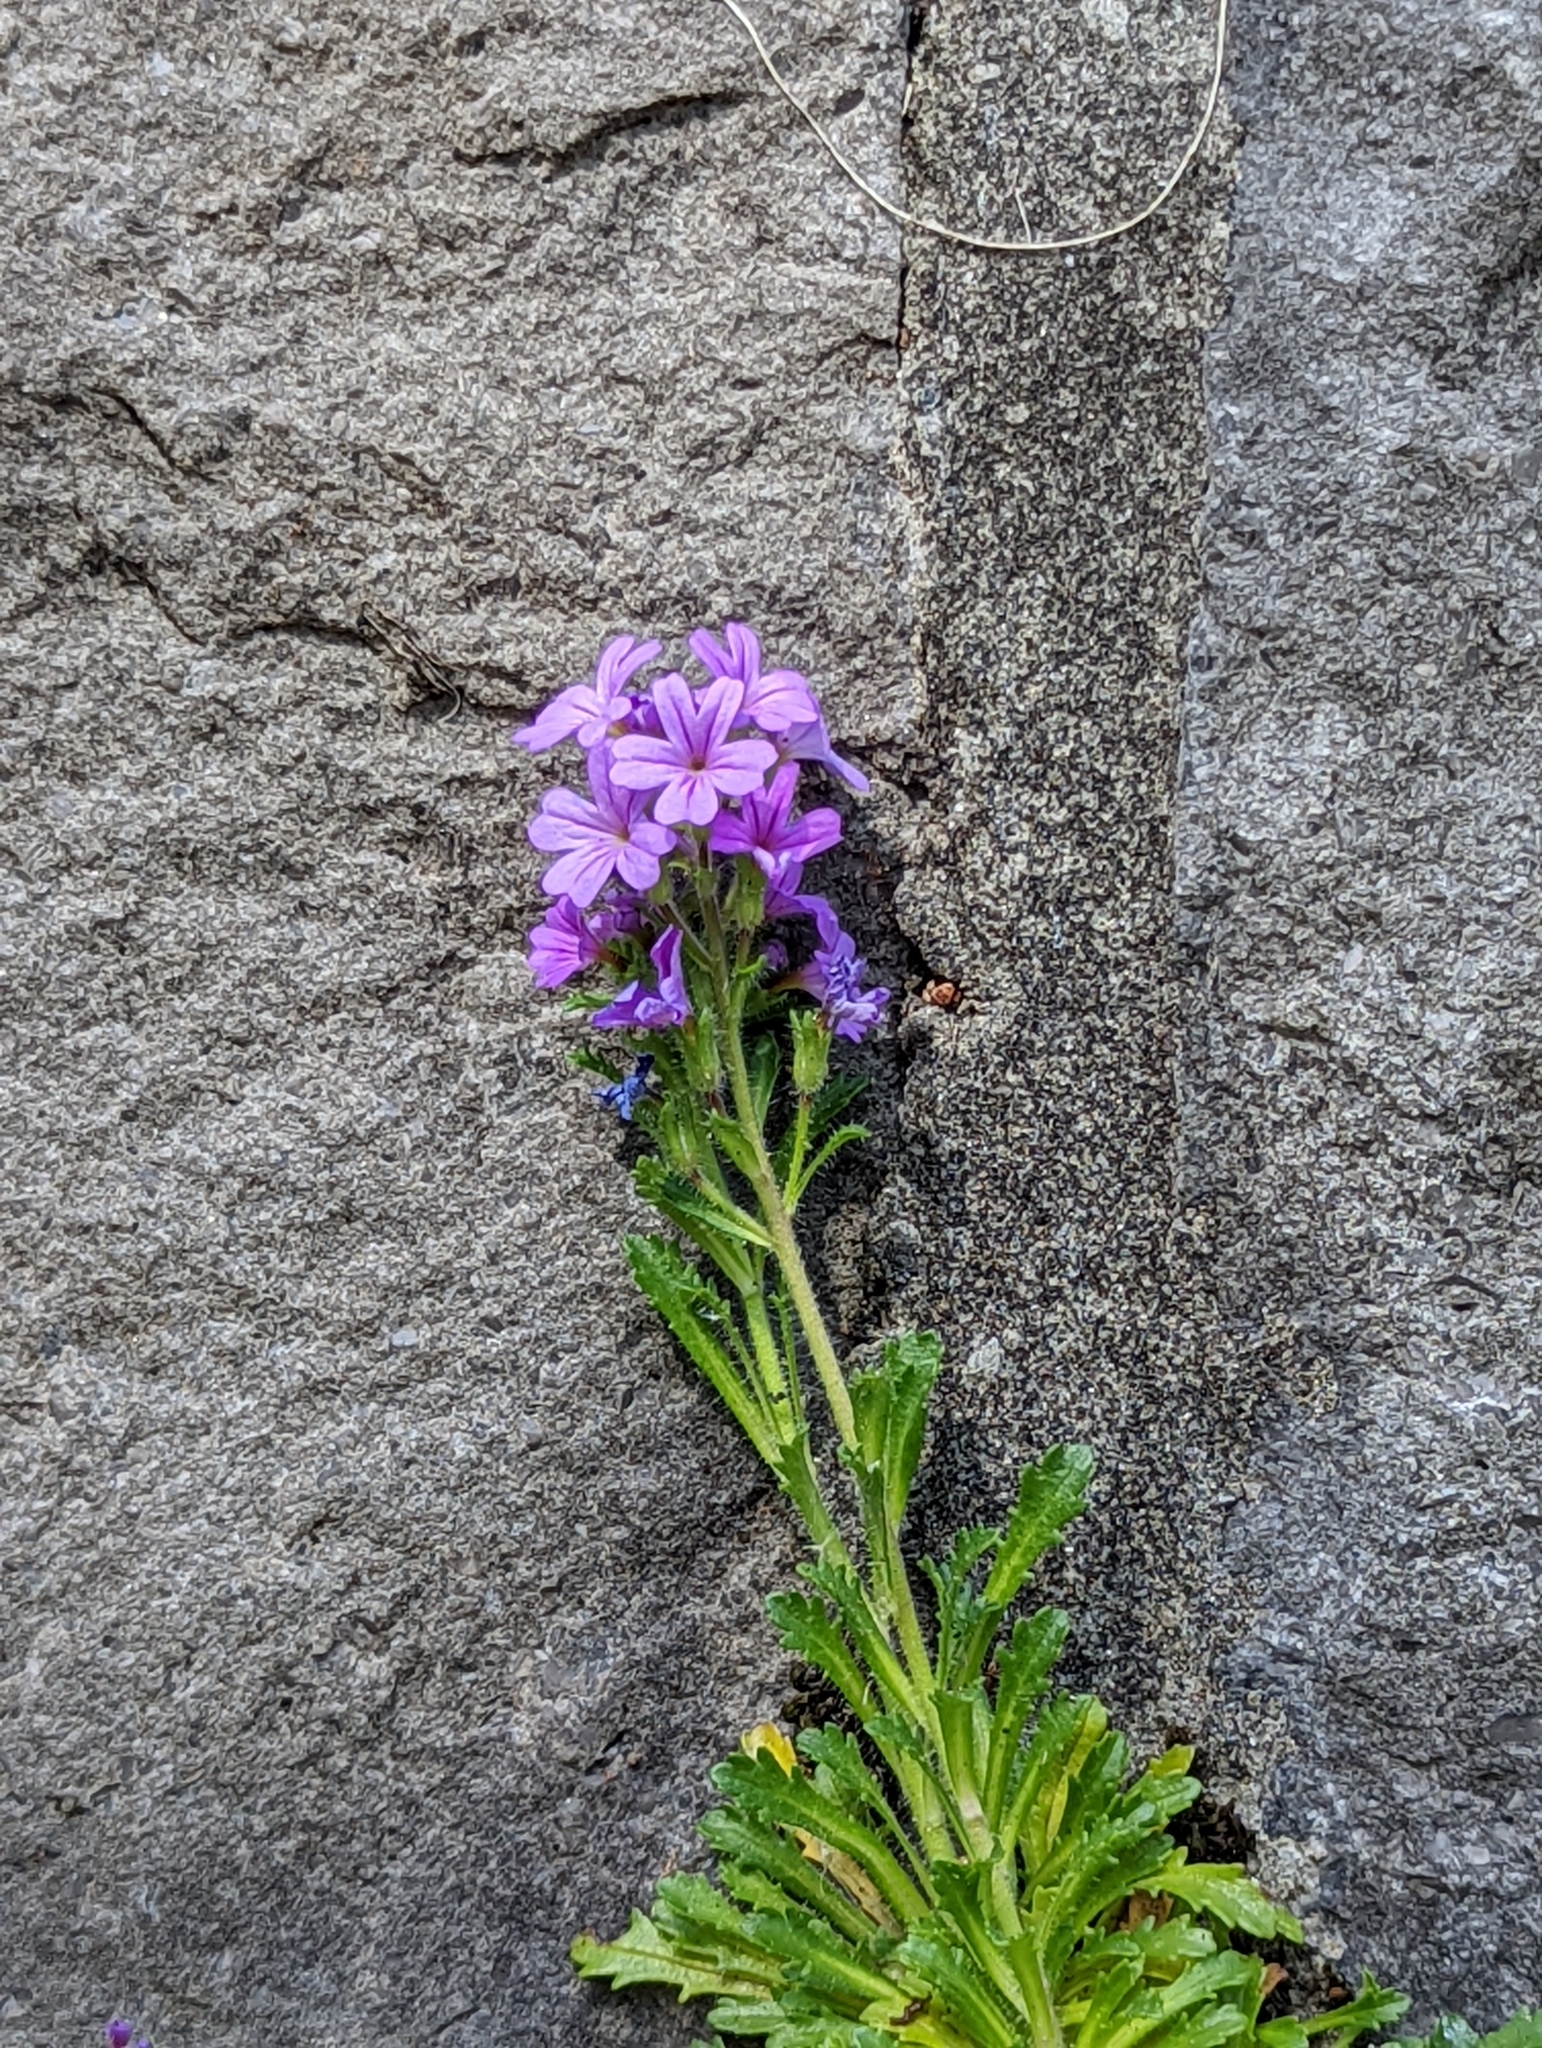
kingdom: Plantae
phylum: Tracheophyta
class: Magnoliopsida
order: Lamiales
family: Plantaginaceae
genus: Erinus
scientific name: Erinus alpinus
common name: Fairy foxglove
